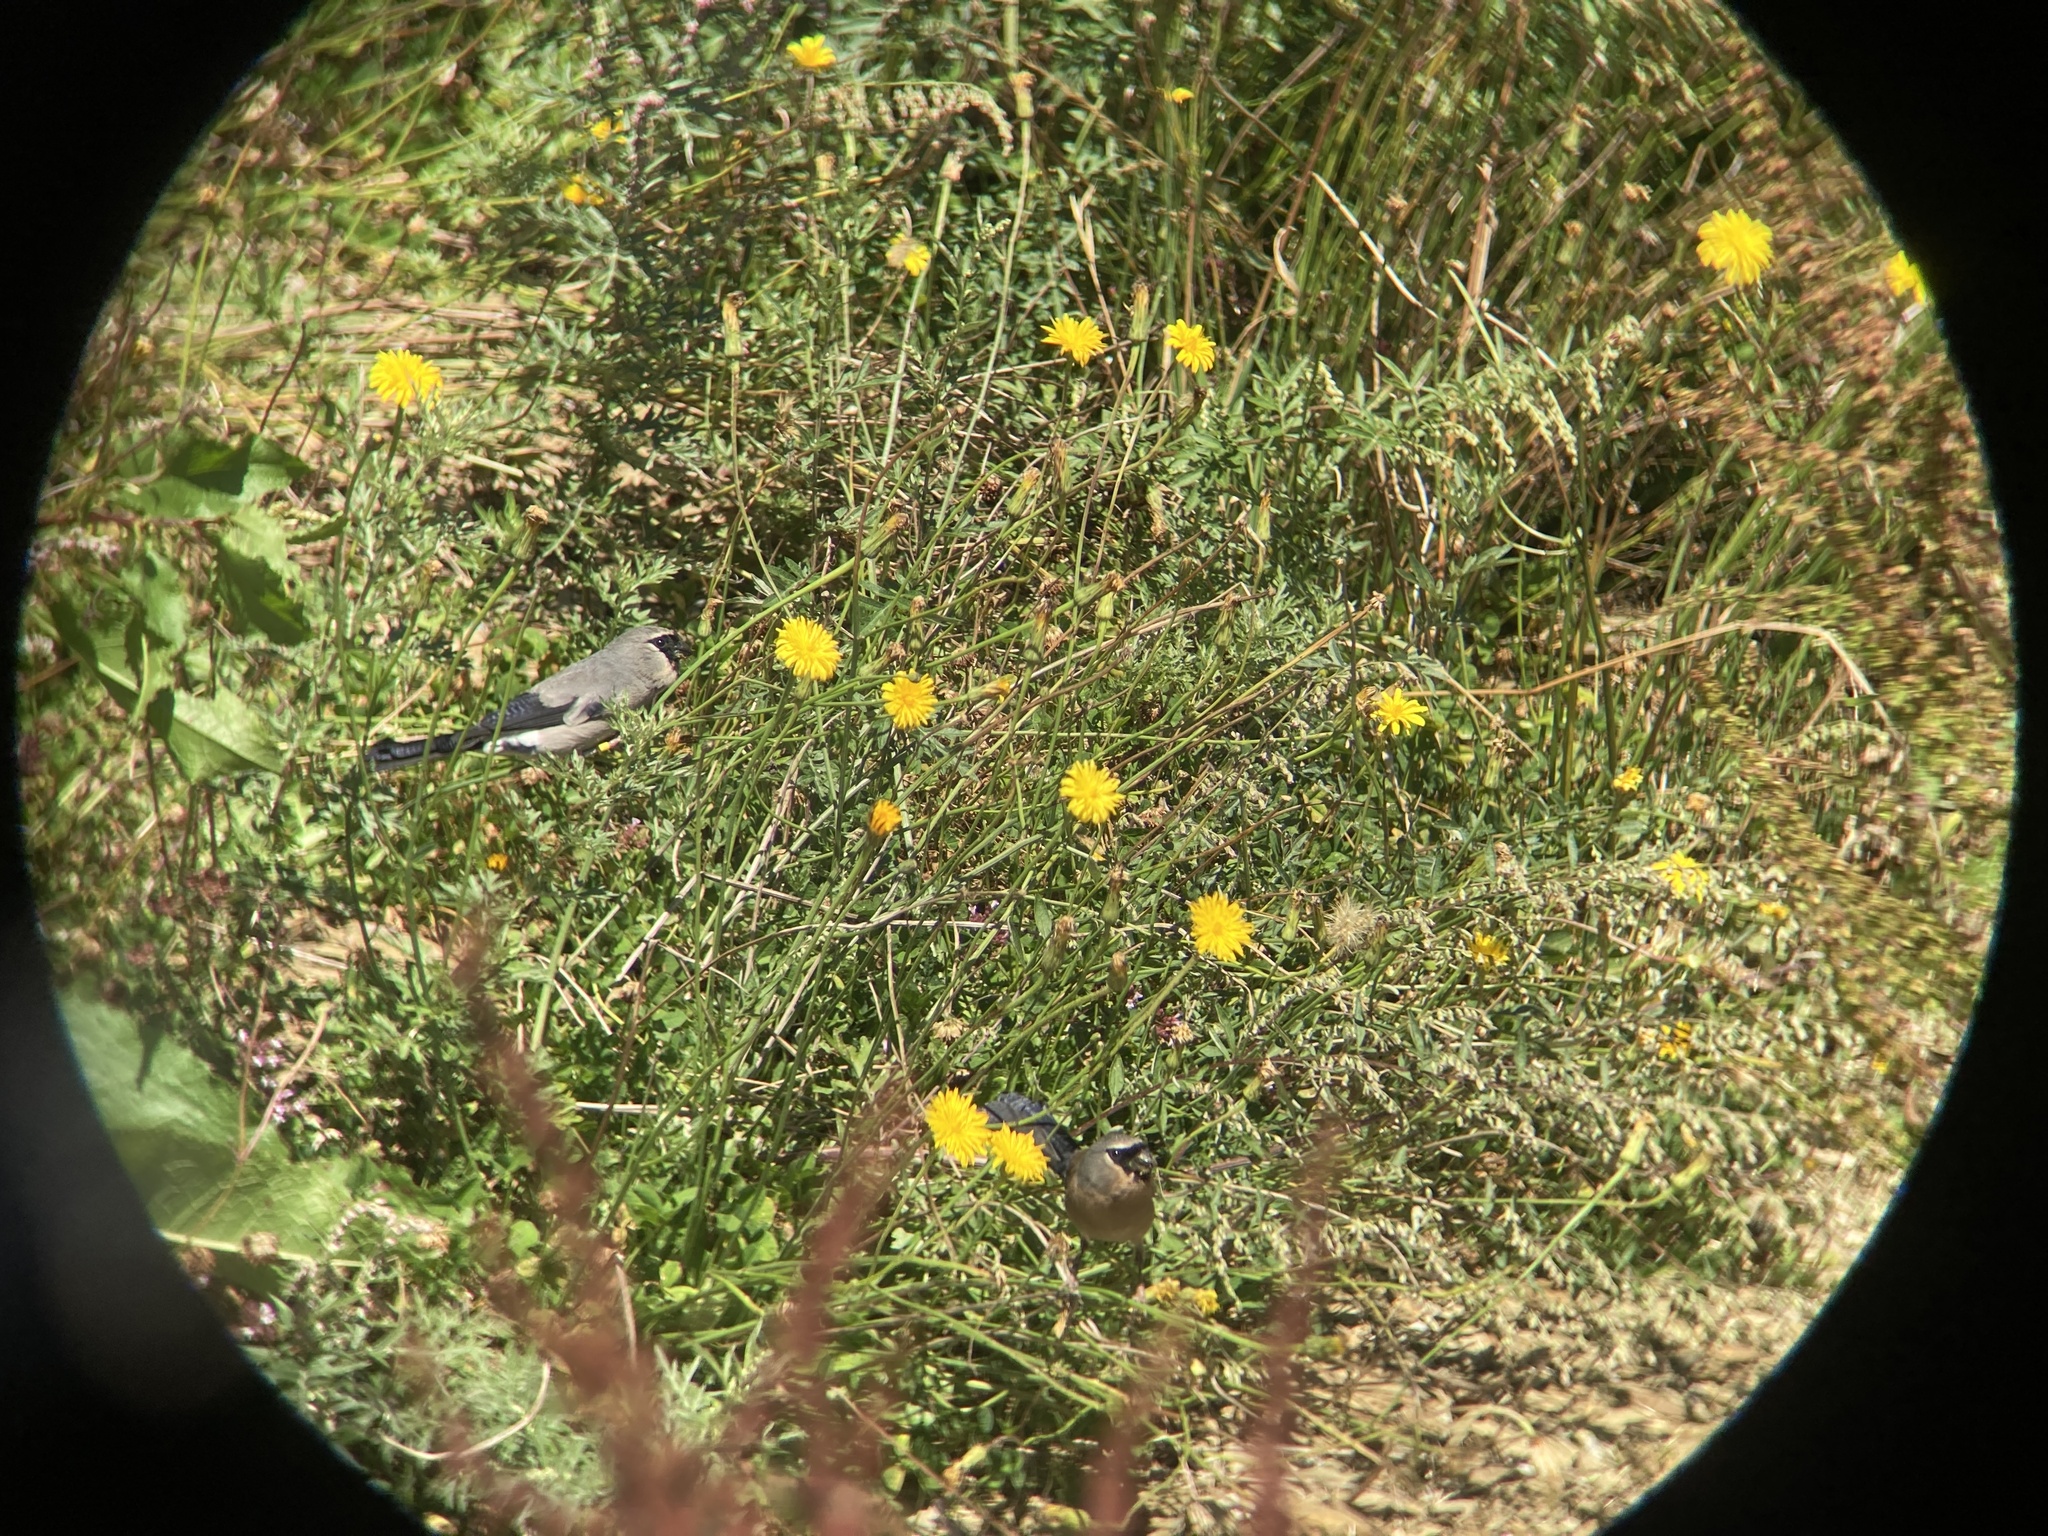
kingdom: Animalia
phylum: Chordata
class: Aves
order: Passeriformes
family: Fringillidae
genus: Pyrrhula
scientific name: Pyrrhula owstoni
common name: Taiwan bullfinch
